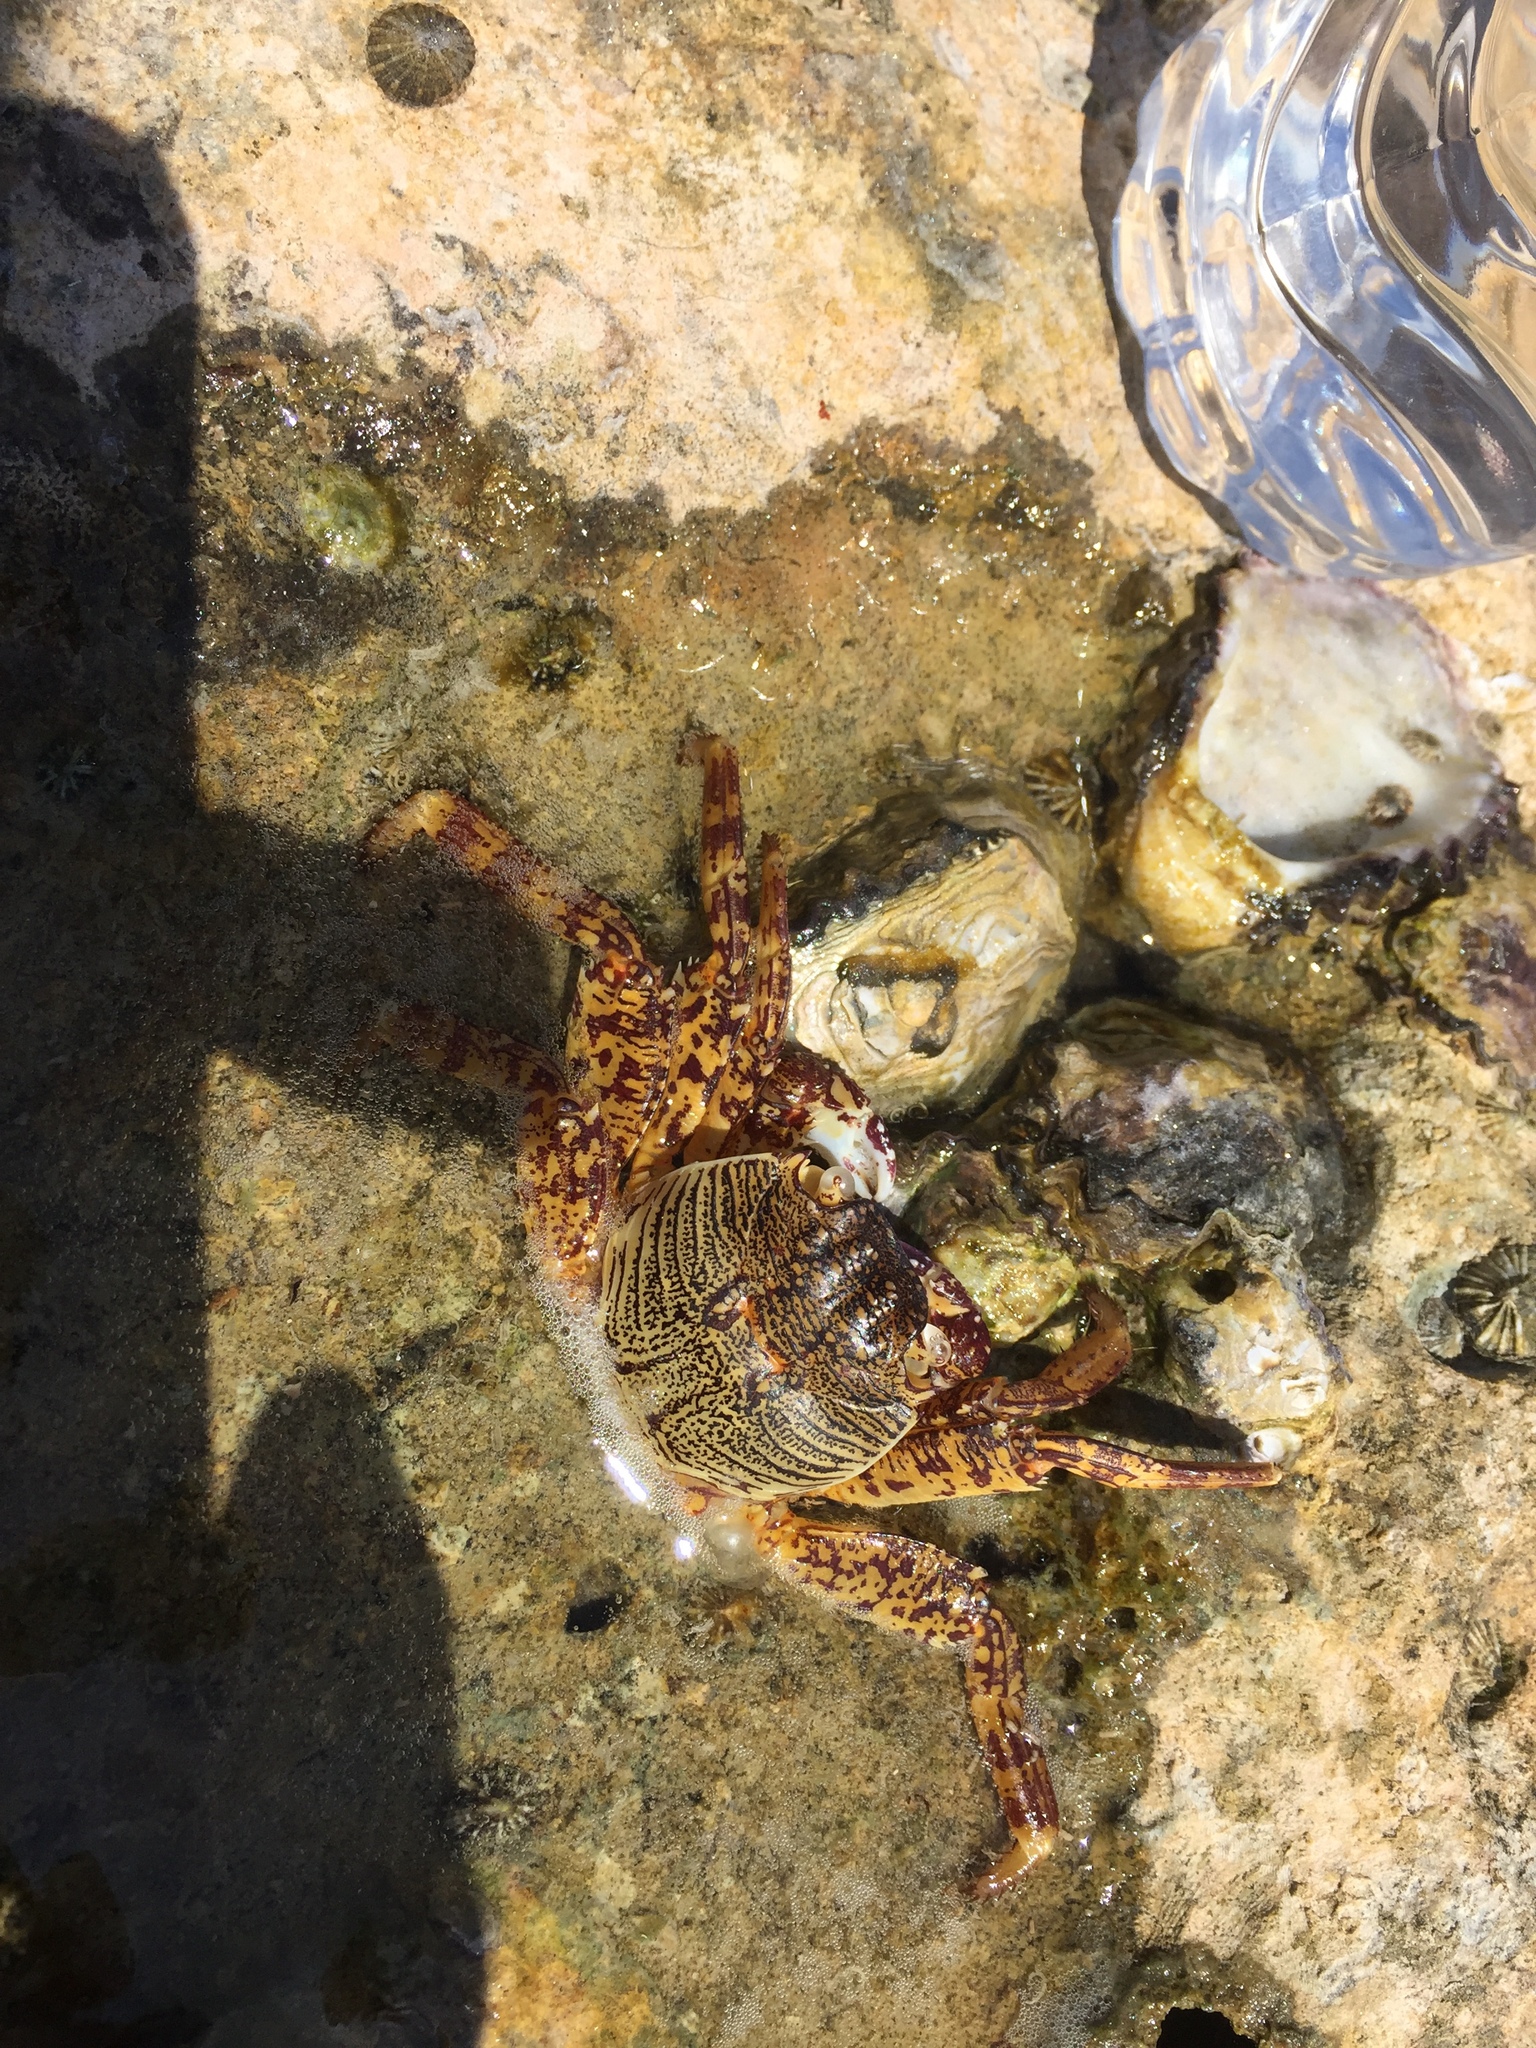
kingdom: Animalia
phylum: Arthropoda
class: Malacostraca
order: Decapoda
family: Grapsidae
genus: Grapsus
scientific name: Grapsus albolineatus
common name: Mottled lightfoot crab
